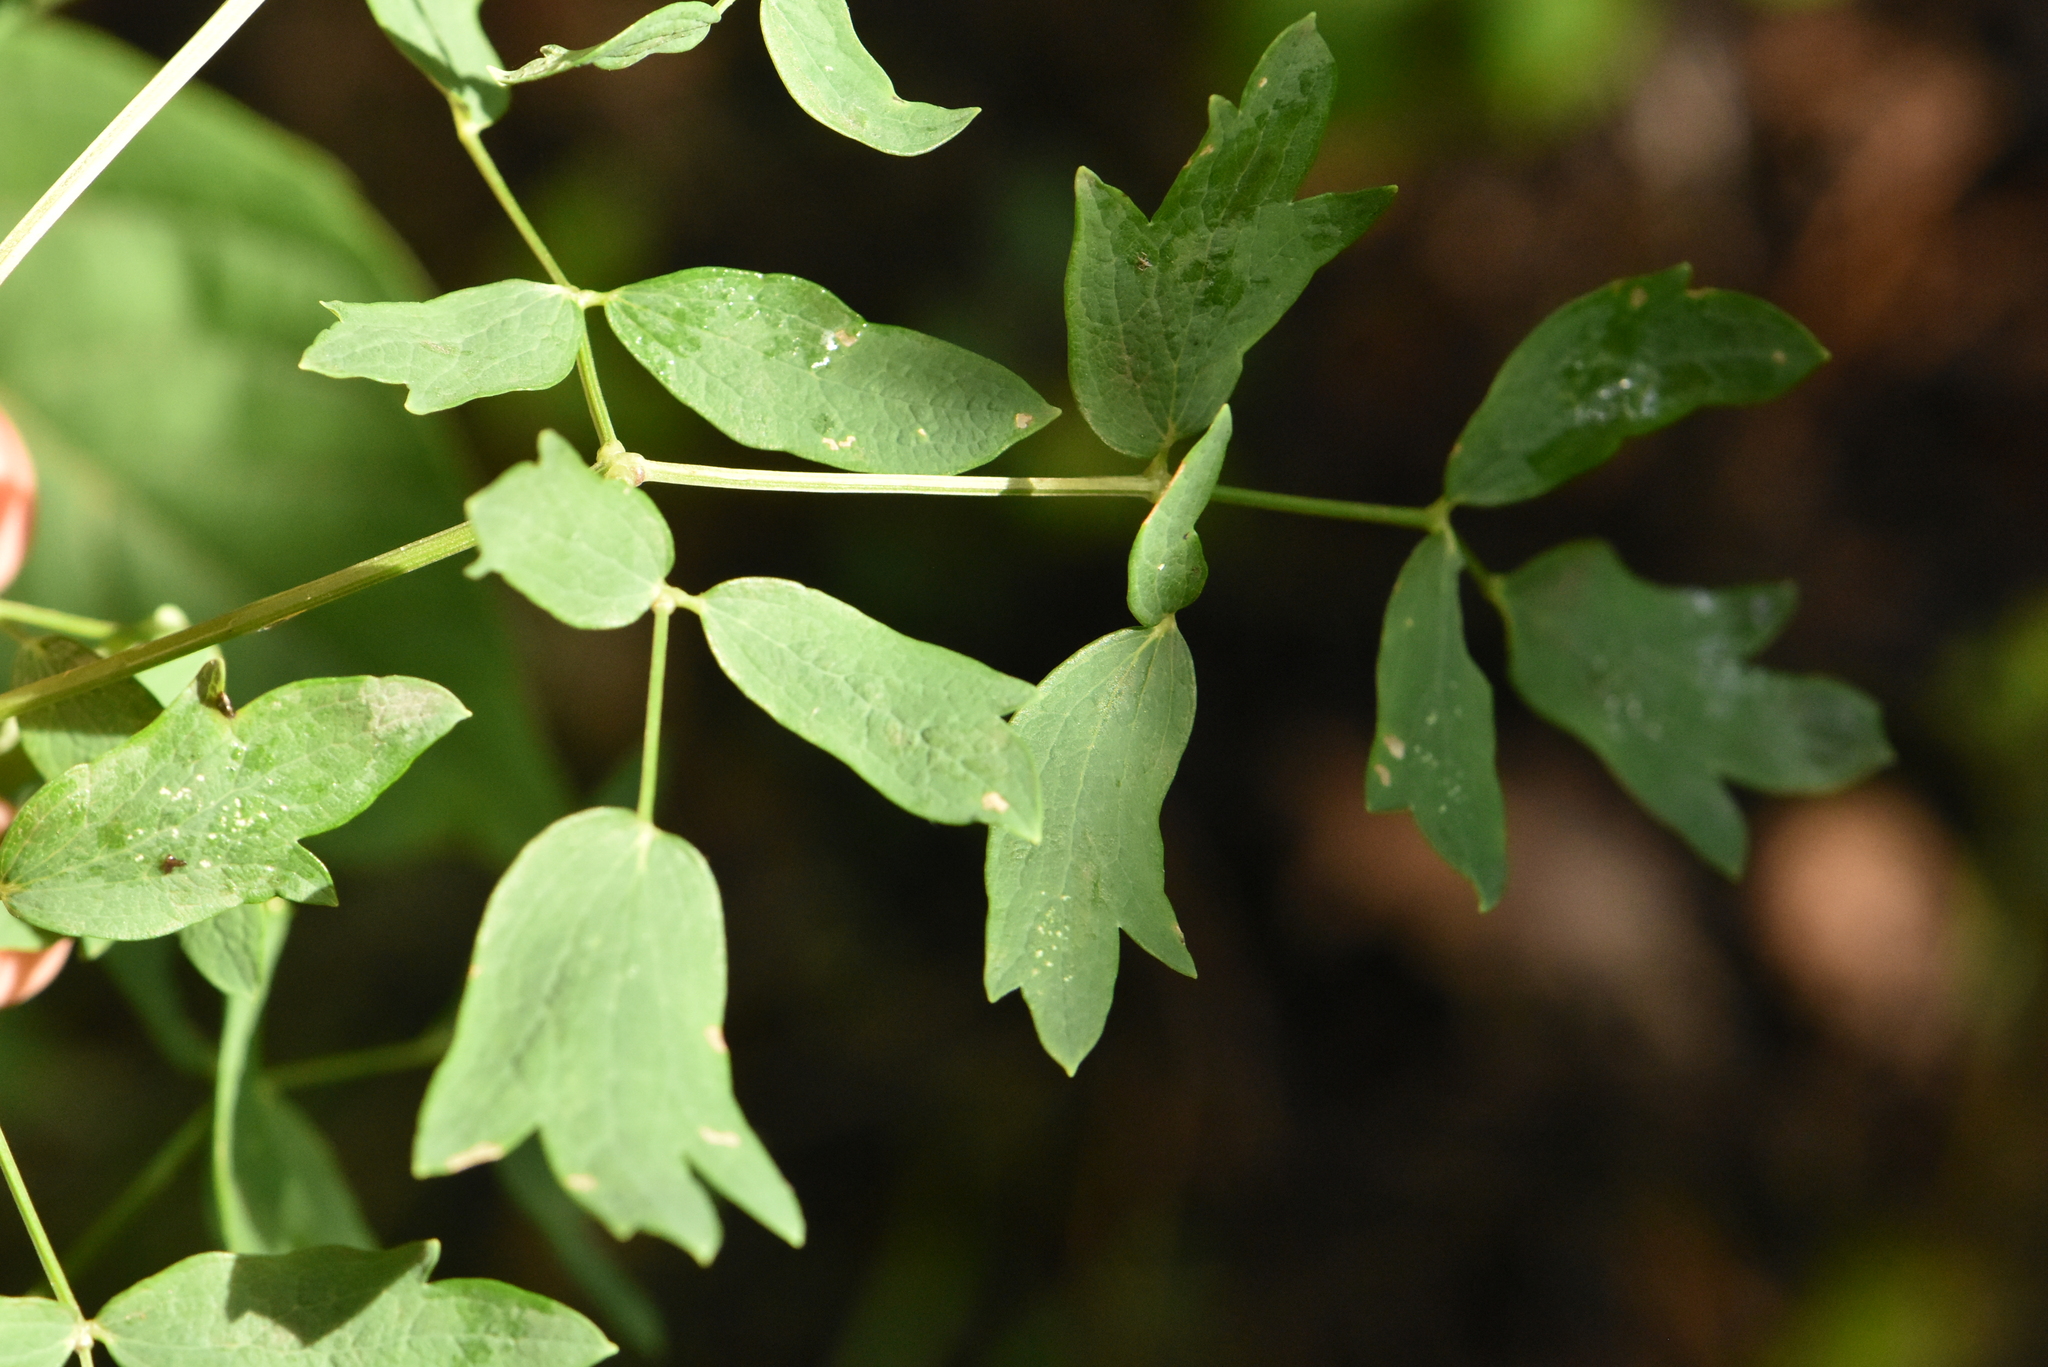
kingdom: Plantae
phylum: Tracheophyta
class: Magnoliopsida
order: Ranunculales
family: Ranunculaceae
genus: Thalictrum
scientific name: Thalictrum simplex
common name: Small meadow-rue
